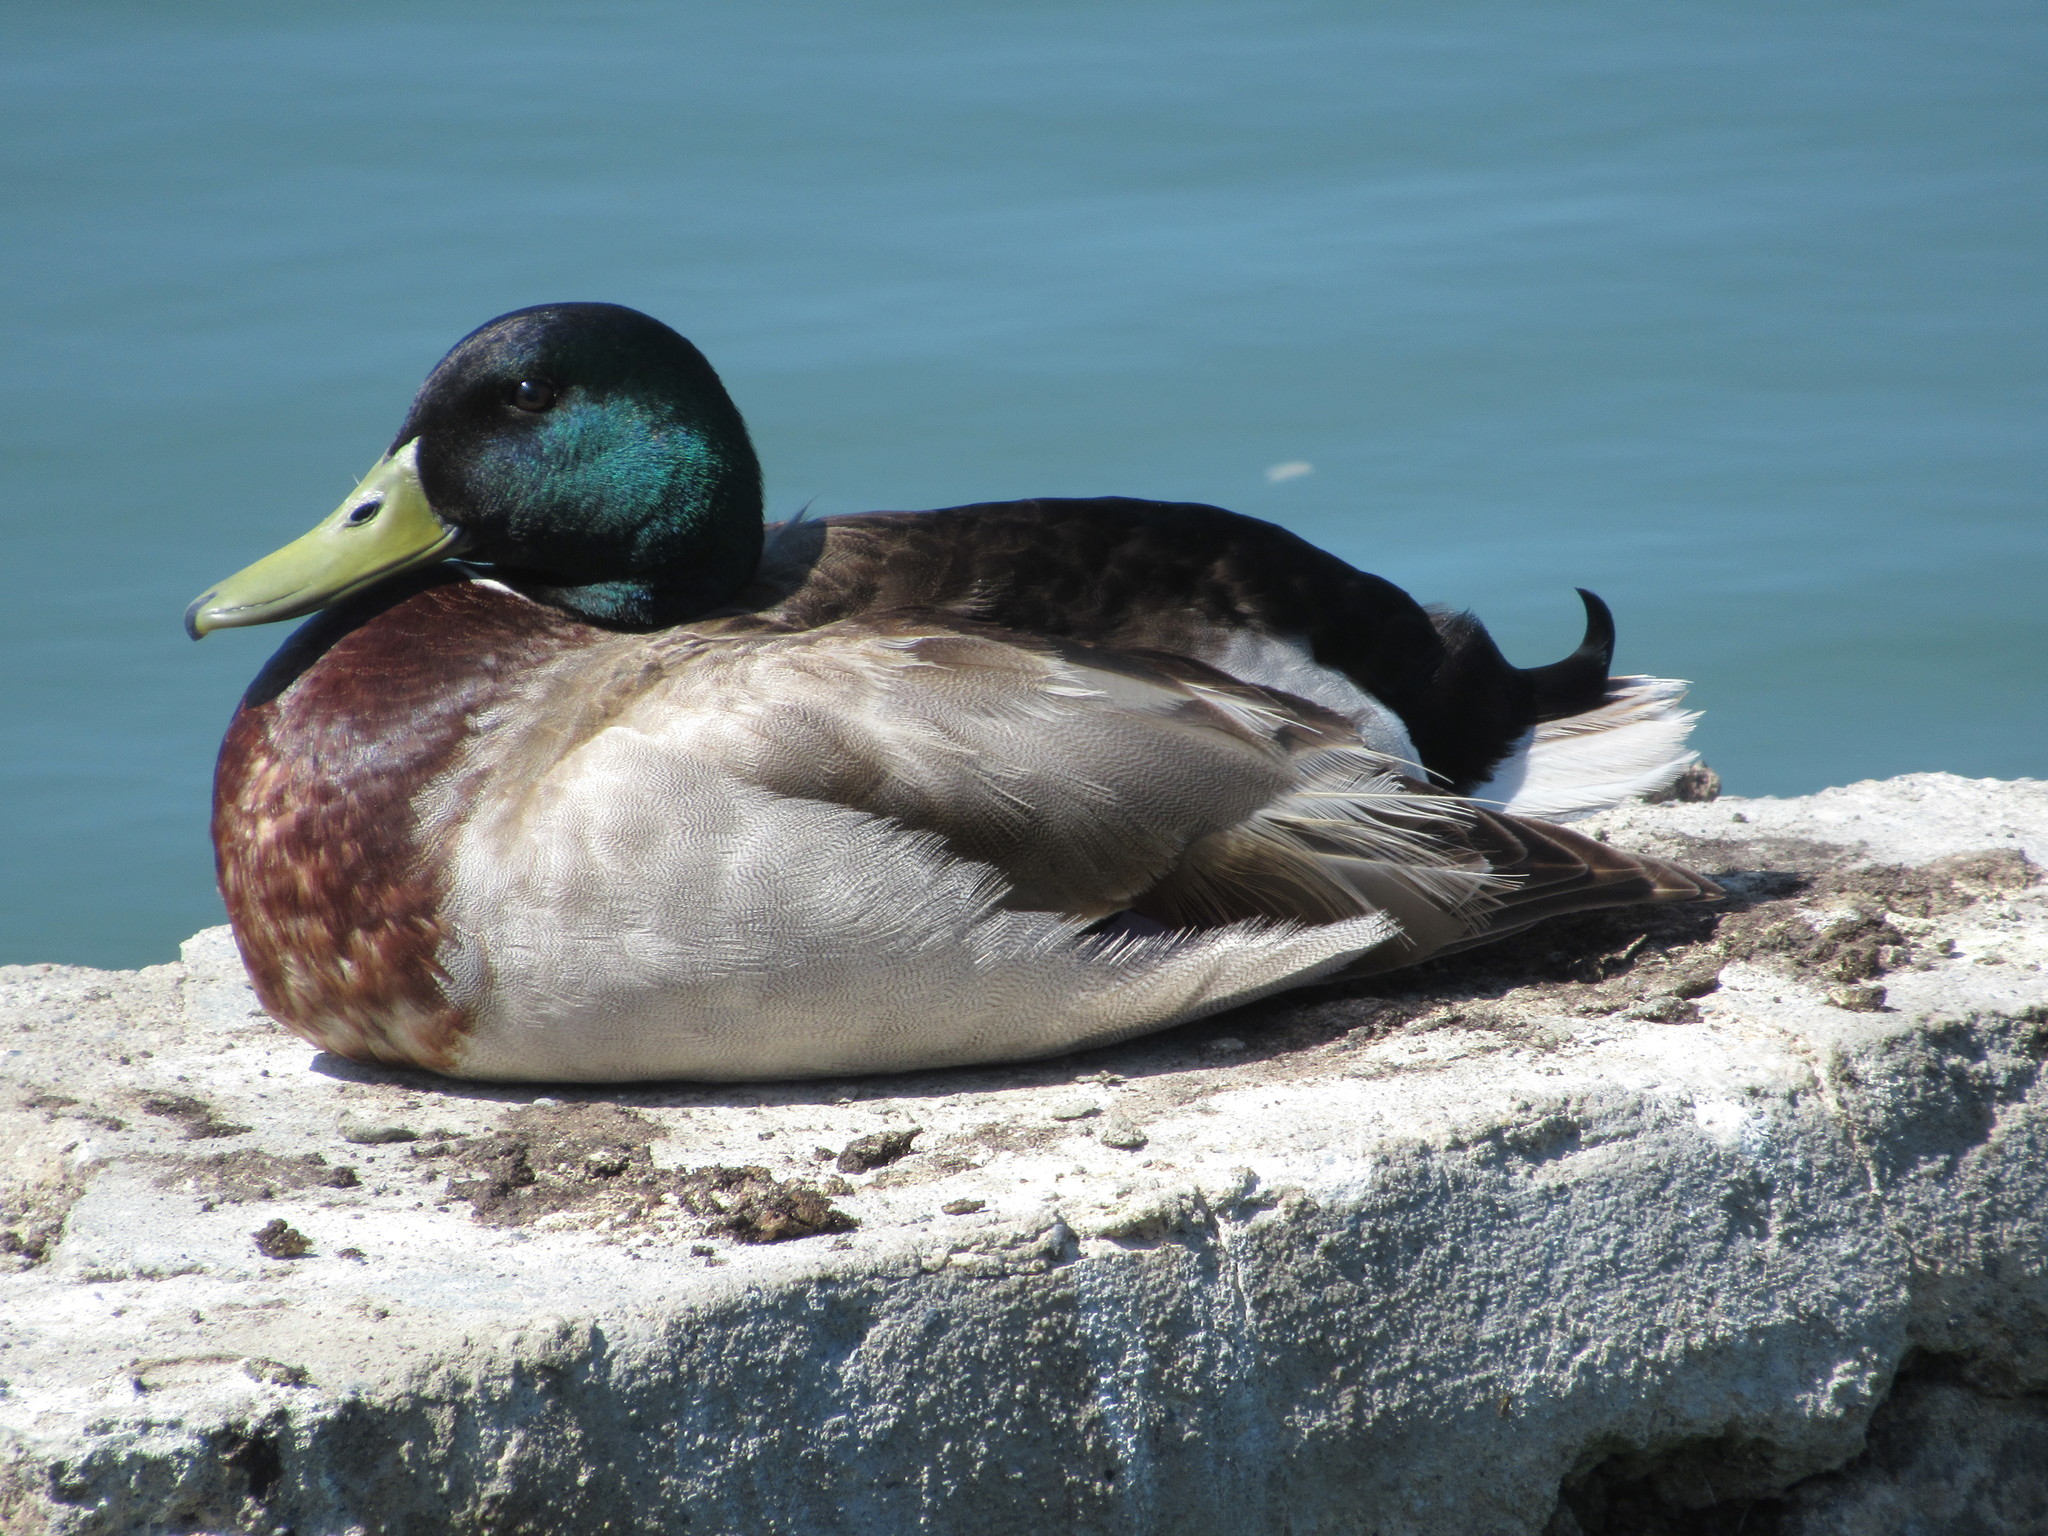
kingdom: Animalia
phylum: Chordata
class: Aves
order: Anseriformes
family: Anatidae
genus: Anas
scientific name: Anas platyrhynchos
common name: Mallard
